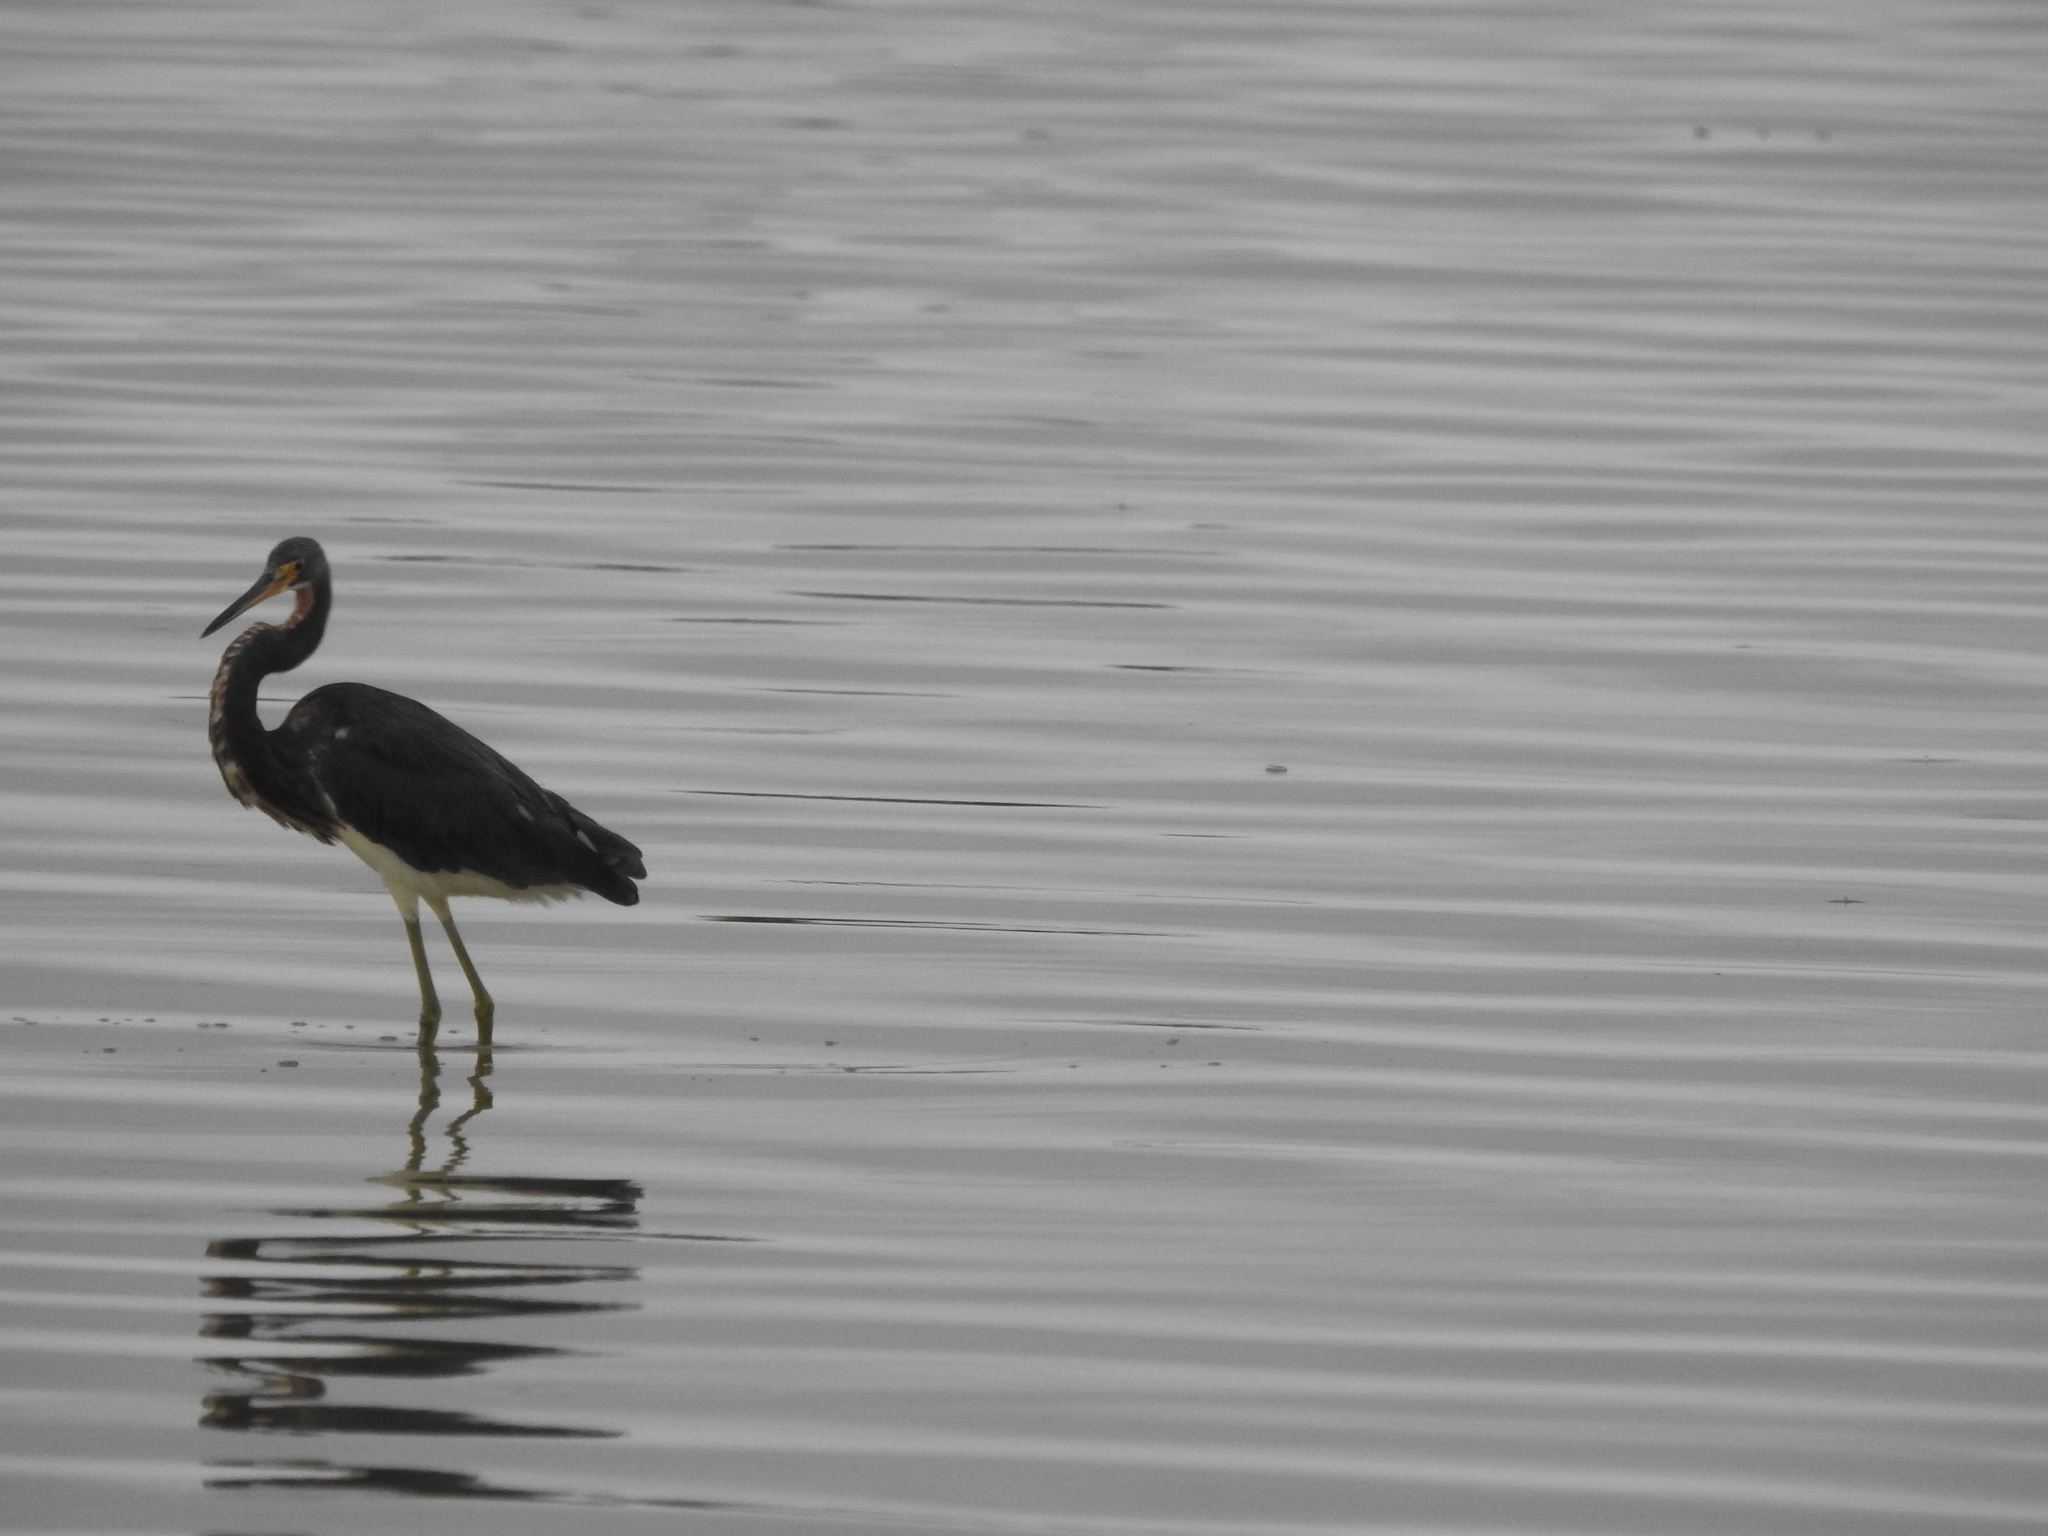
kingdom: Animalia
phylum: Chordata
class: Aves
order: Pelecaniformes
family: Ardeidae
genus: Egretta
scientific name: Egretta tricolor
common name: Tricolored heron
